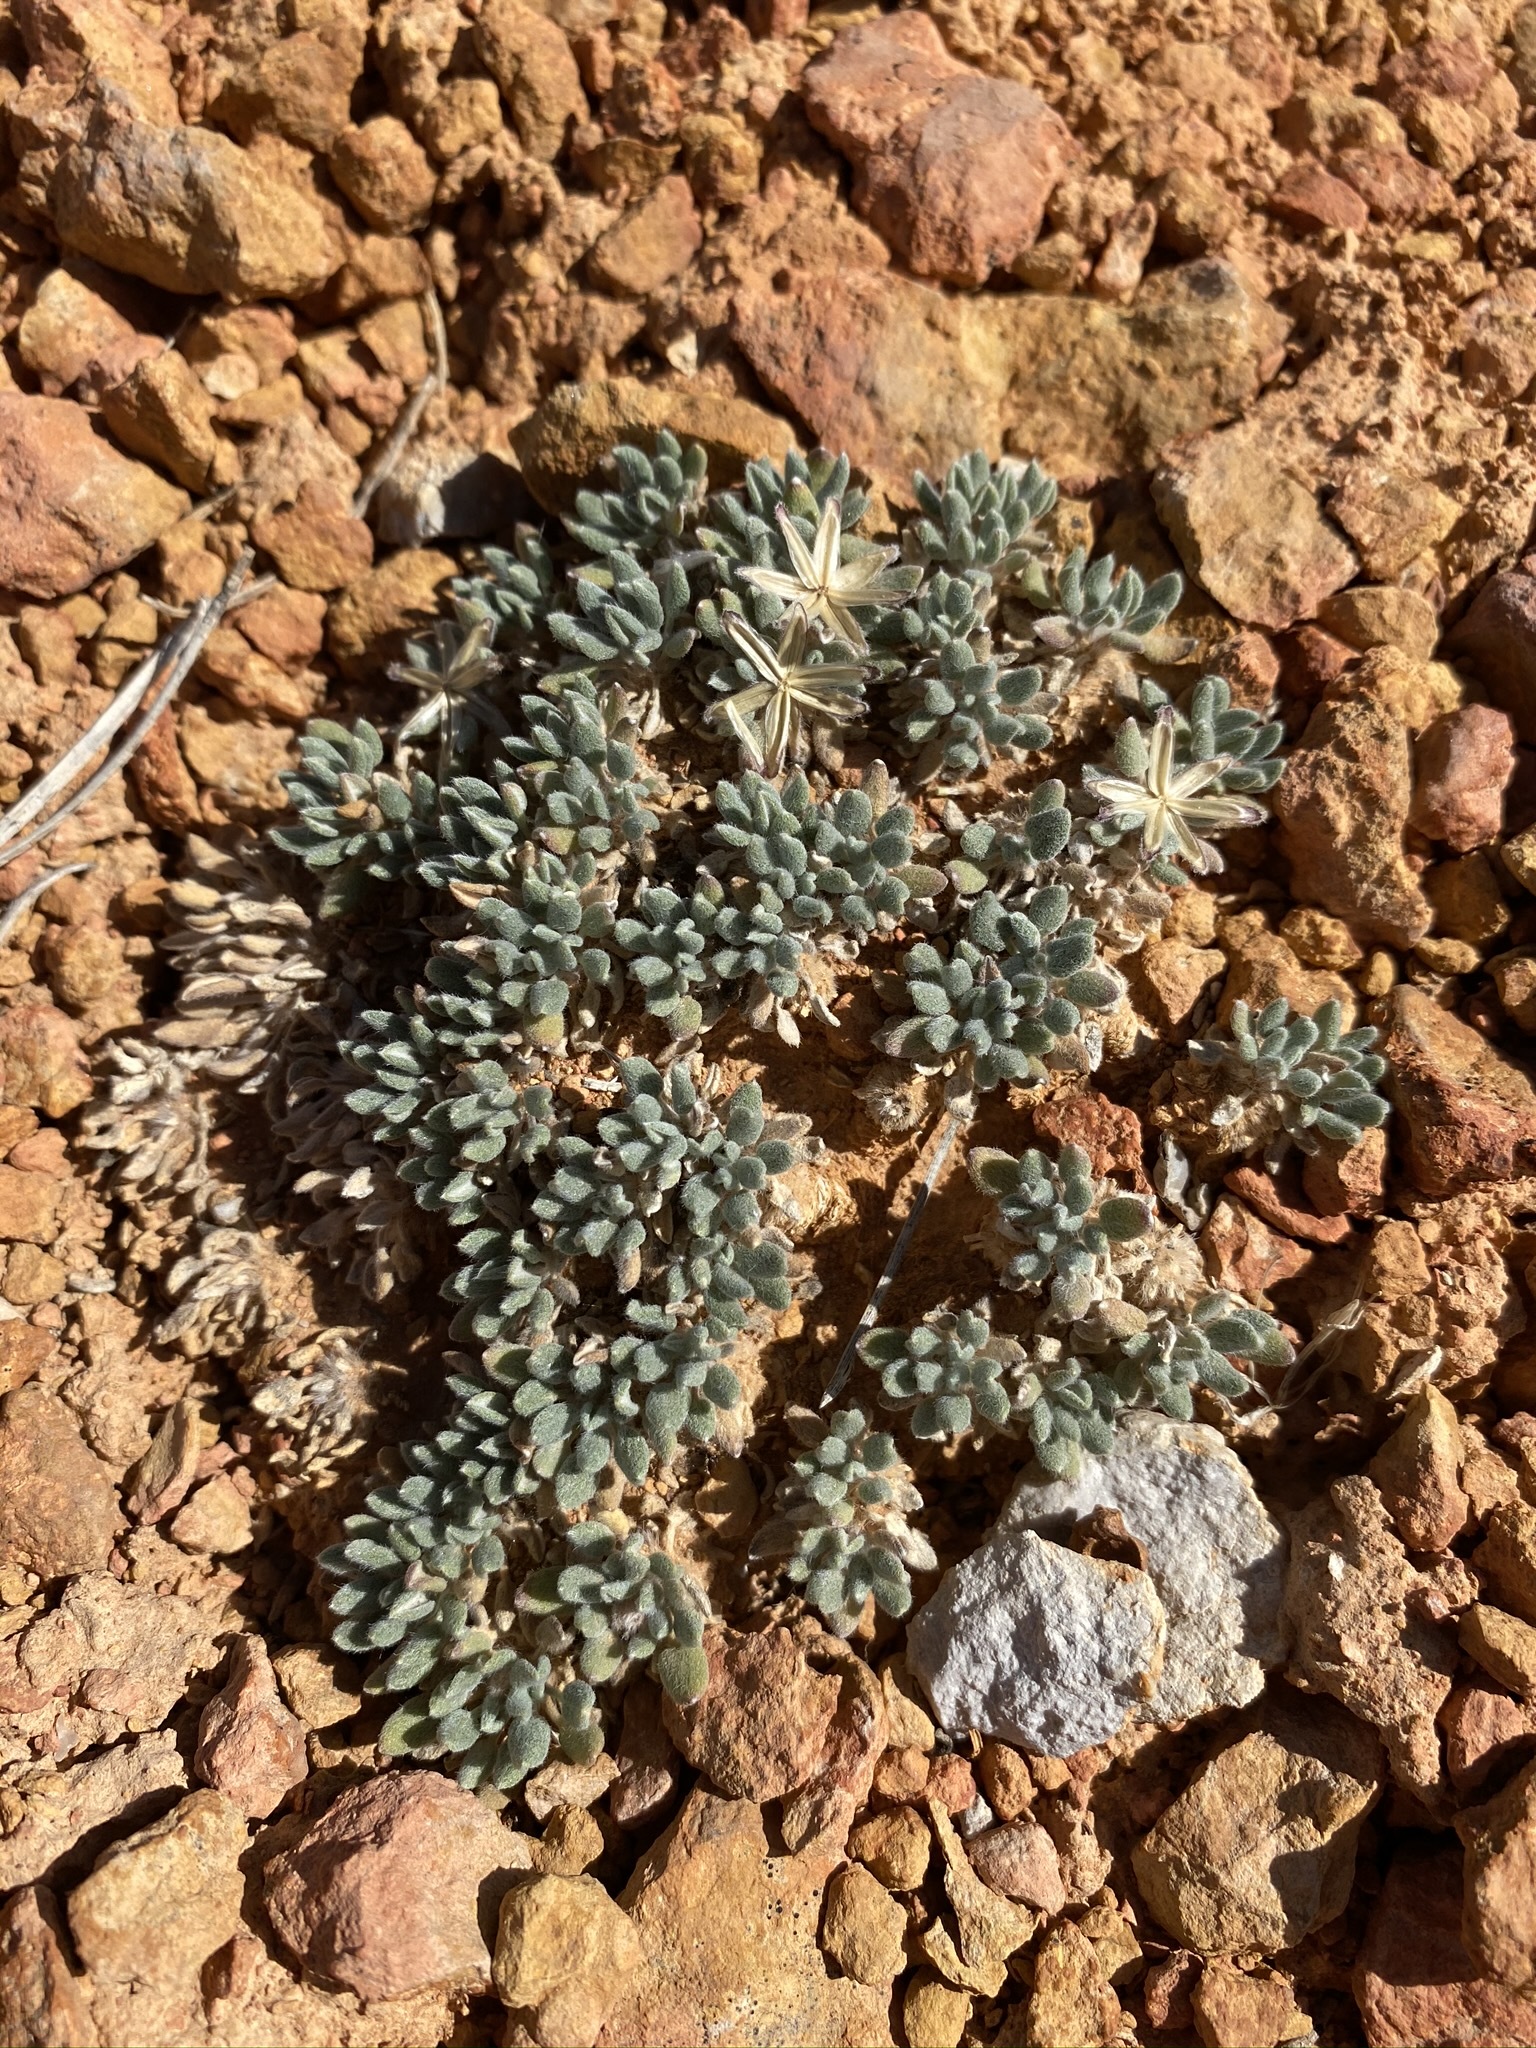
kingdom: Plantae
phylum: Tracheophyta
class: Magnoliopsida
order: Asterales
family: Asteraceae
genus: Chamaechaenactis
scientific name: Chamaechaenactis scaposa
